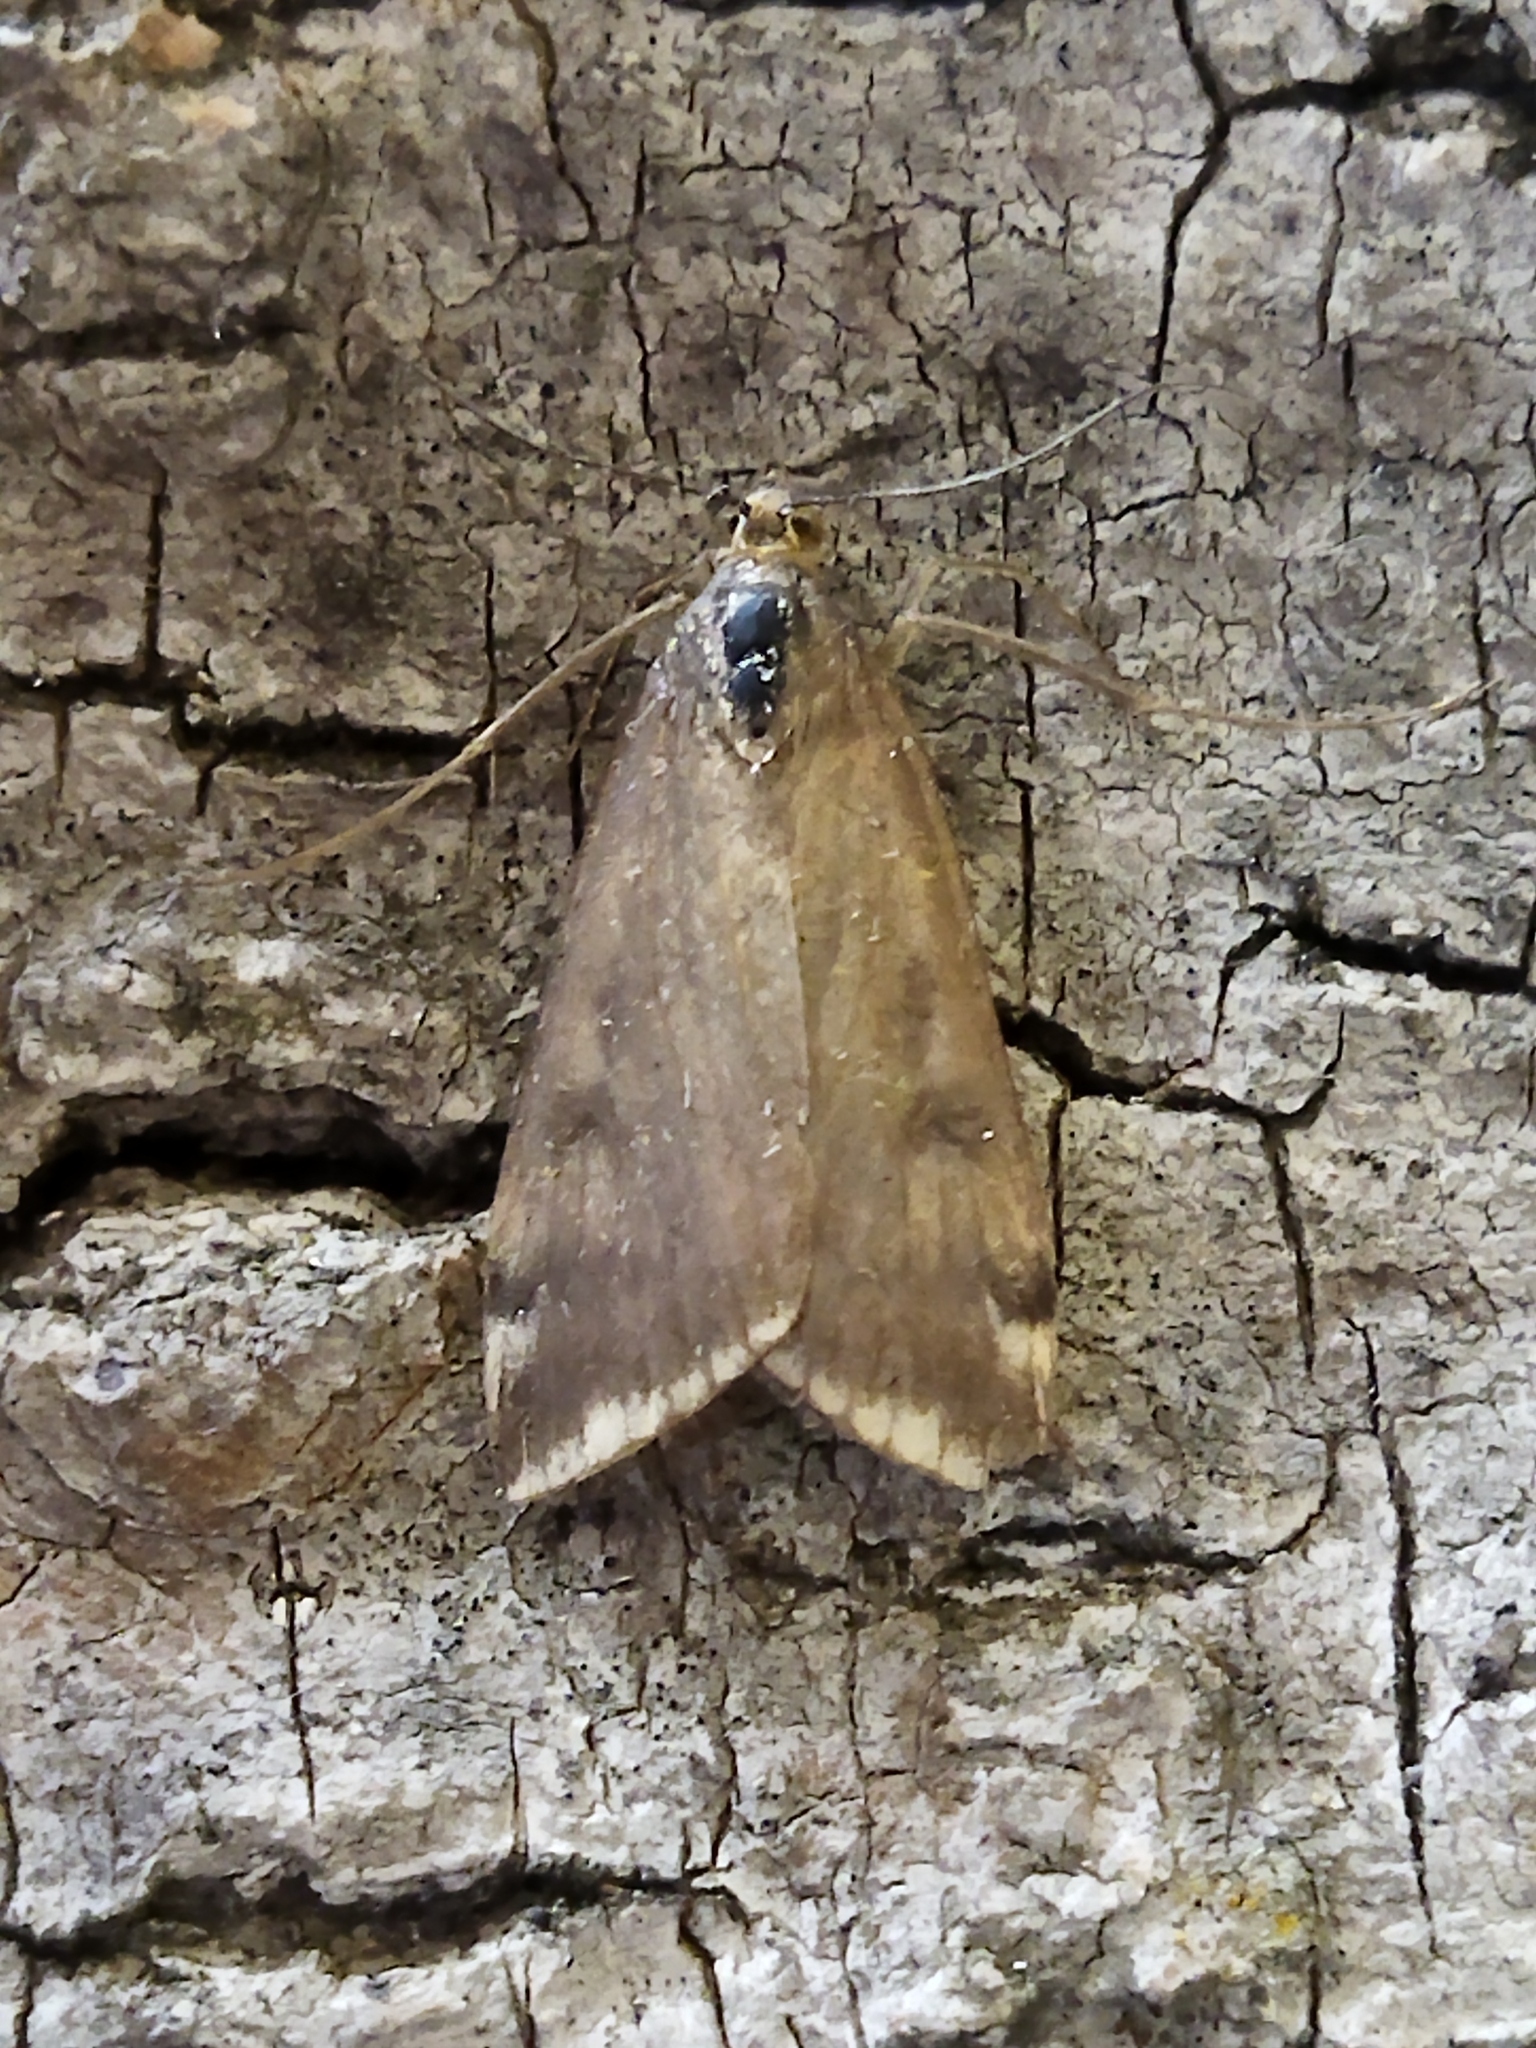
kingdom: Animalia
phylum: Arthropoda
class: Insecta
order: Lepidoptera
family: Crambidae
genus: Loxostege
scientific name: Loxostege sticticalis
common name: Crambid moth
